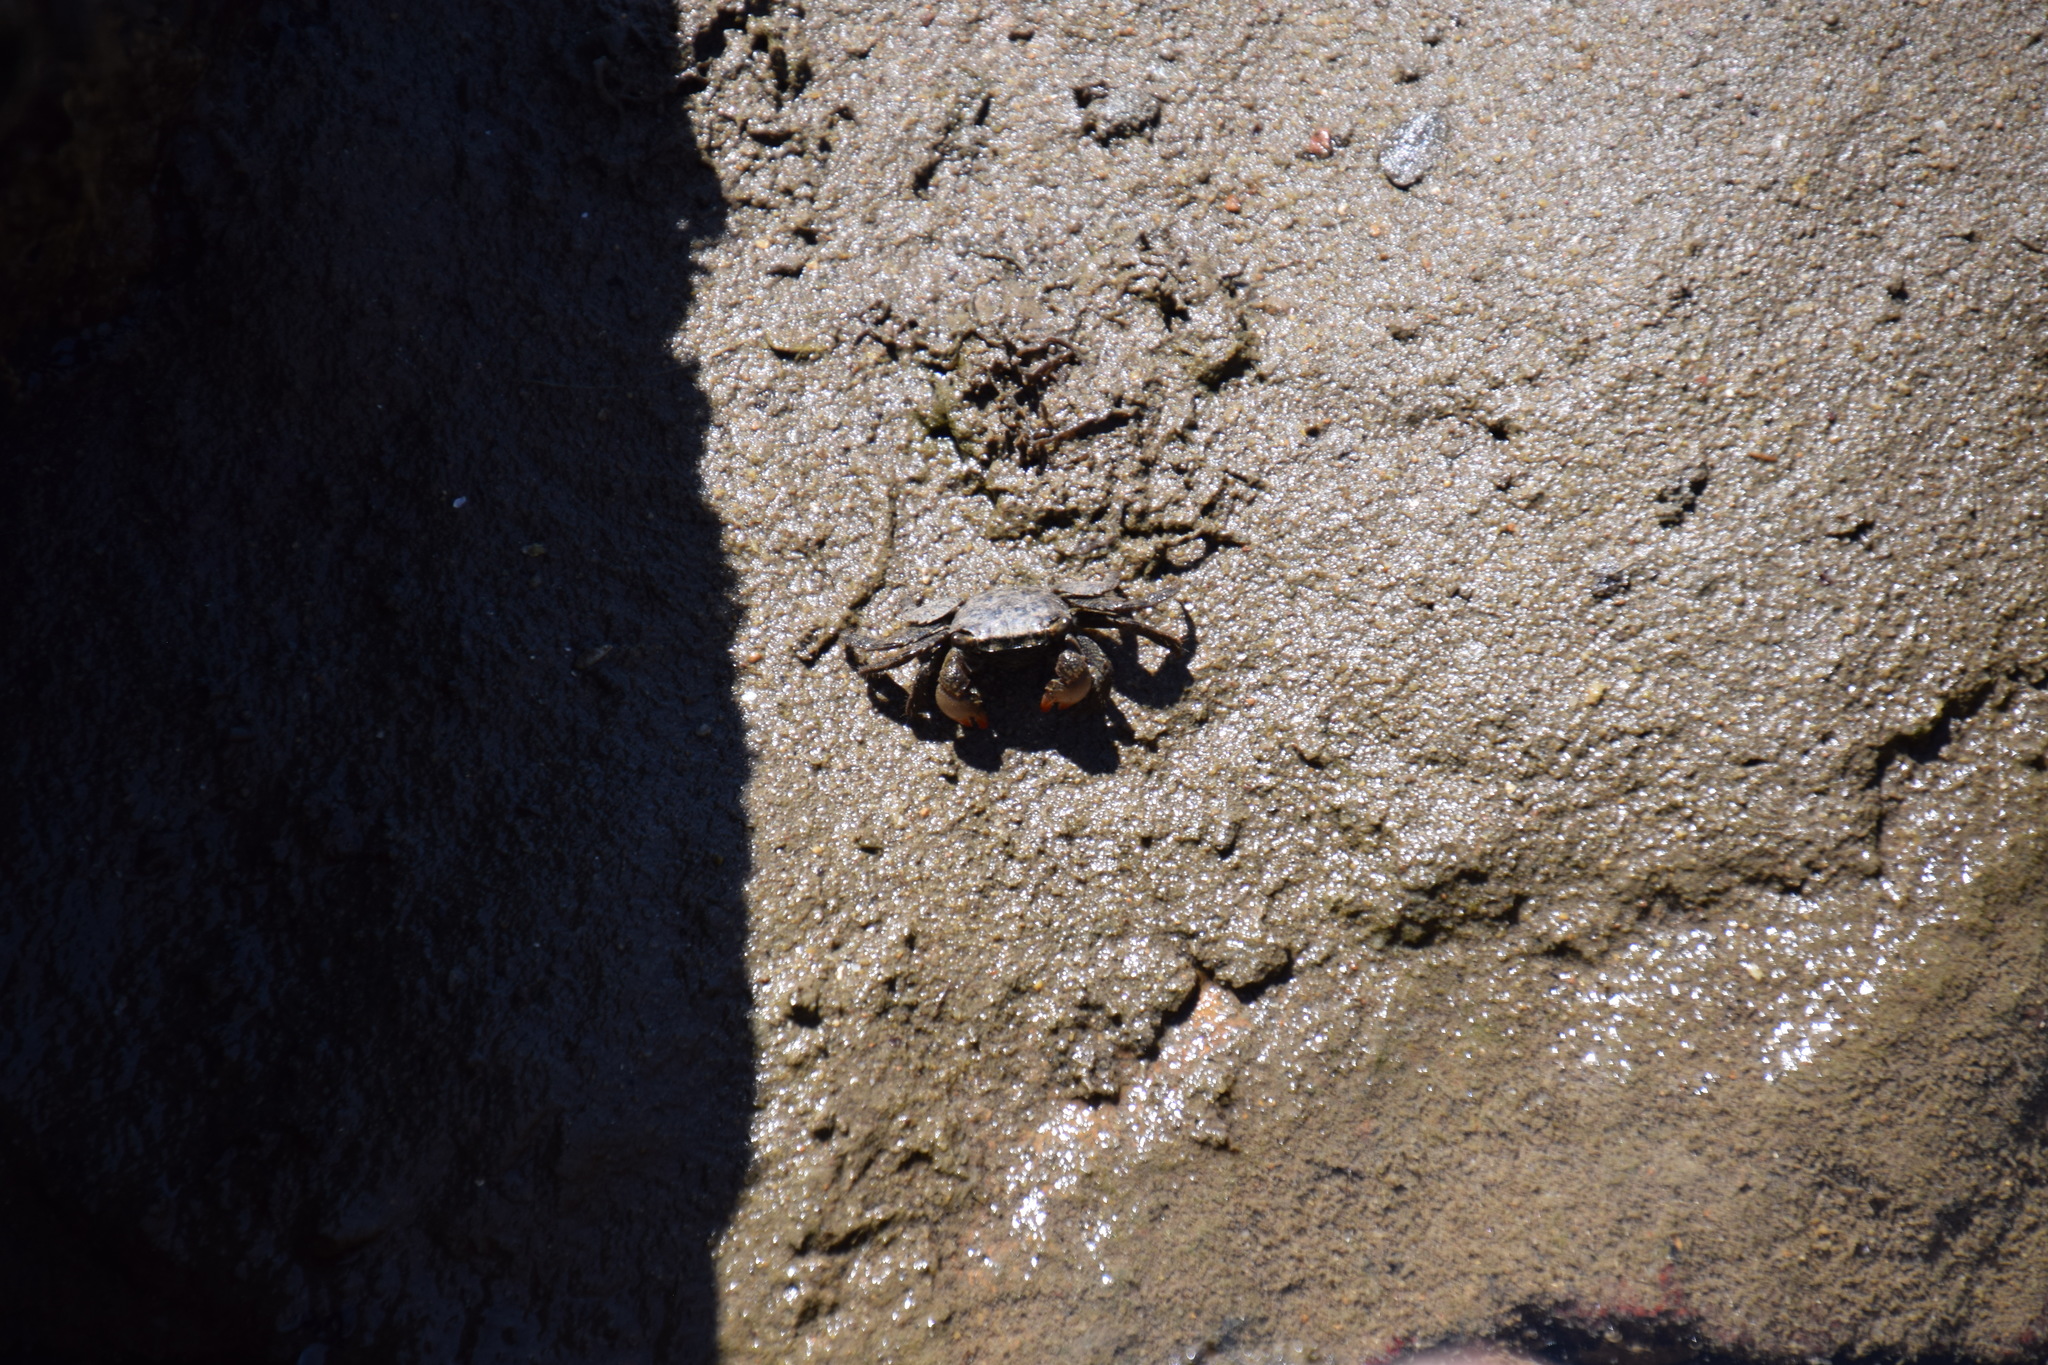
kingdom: Animalia
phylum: Arthropoda
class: Malacostraca
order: Decapoda
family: Sesarmidae
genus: Parasesarma
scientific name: Parasesarma erythodactylum
